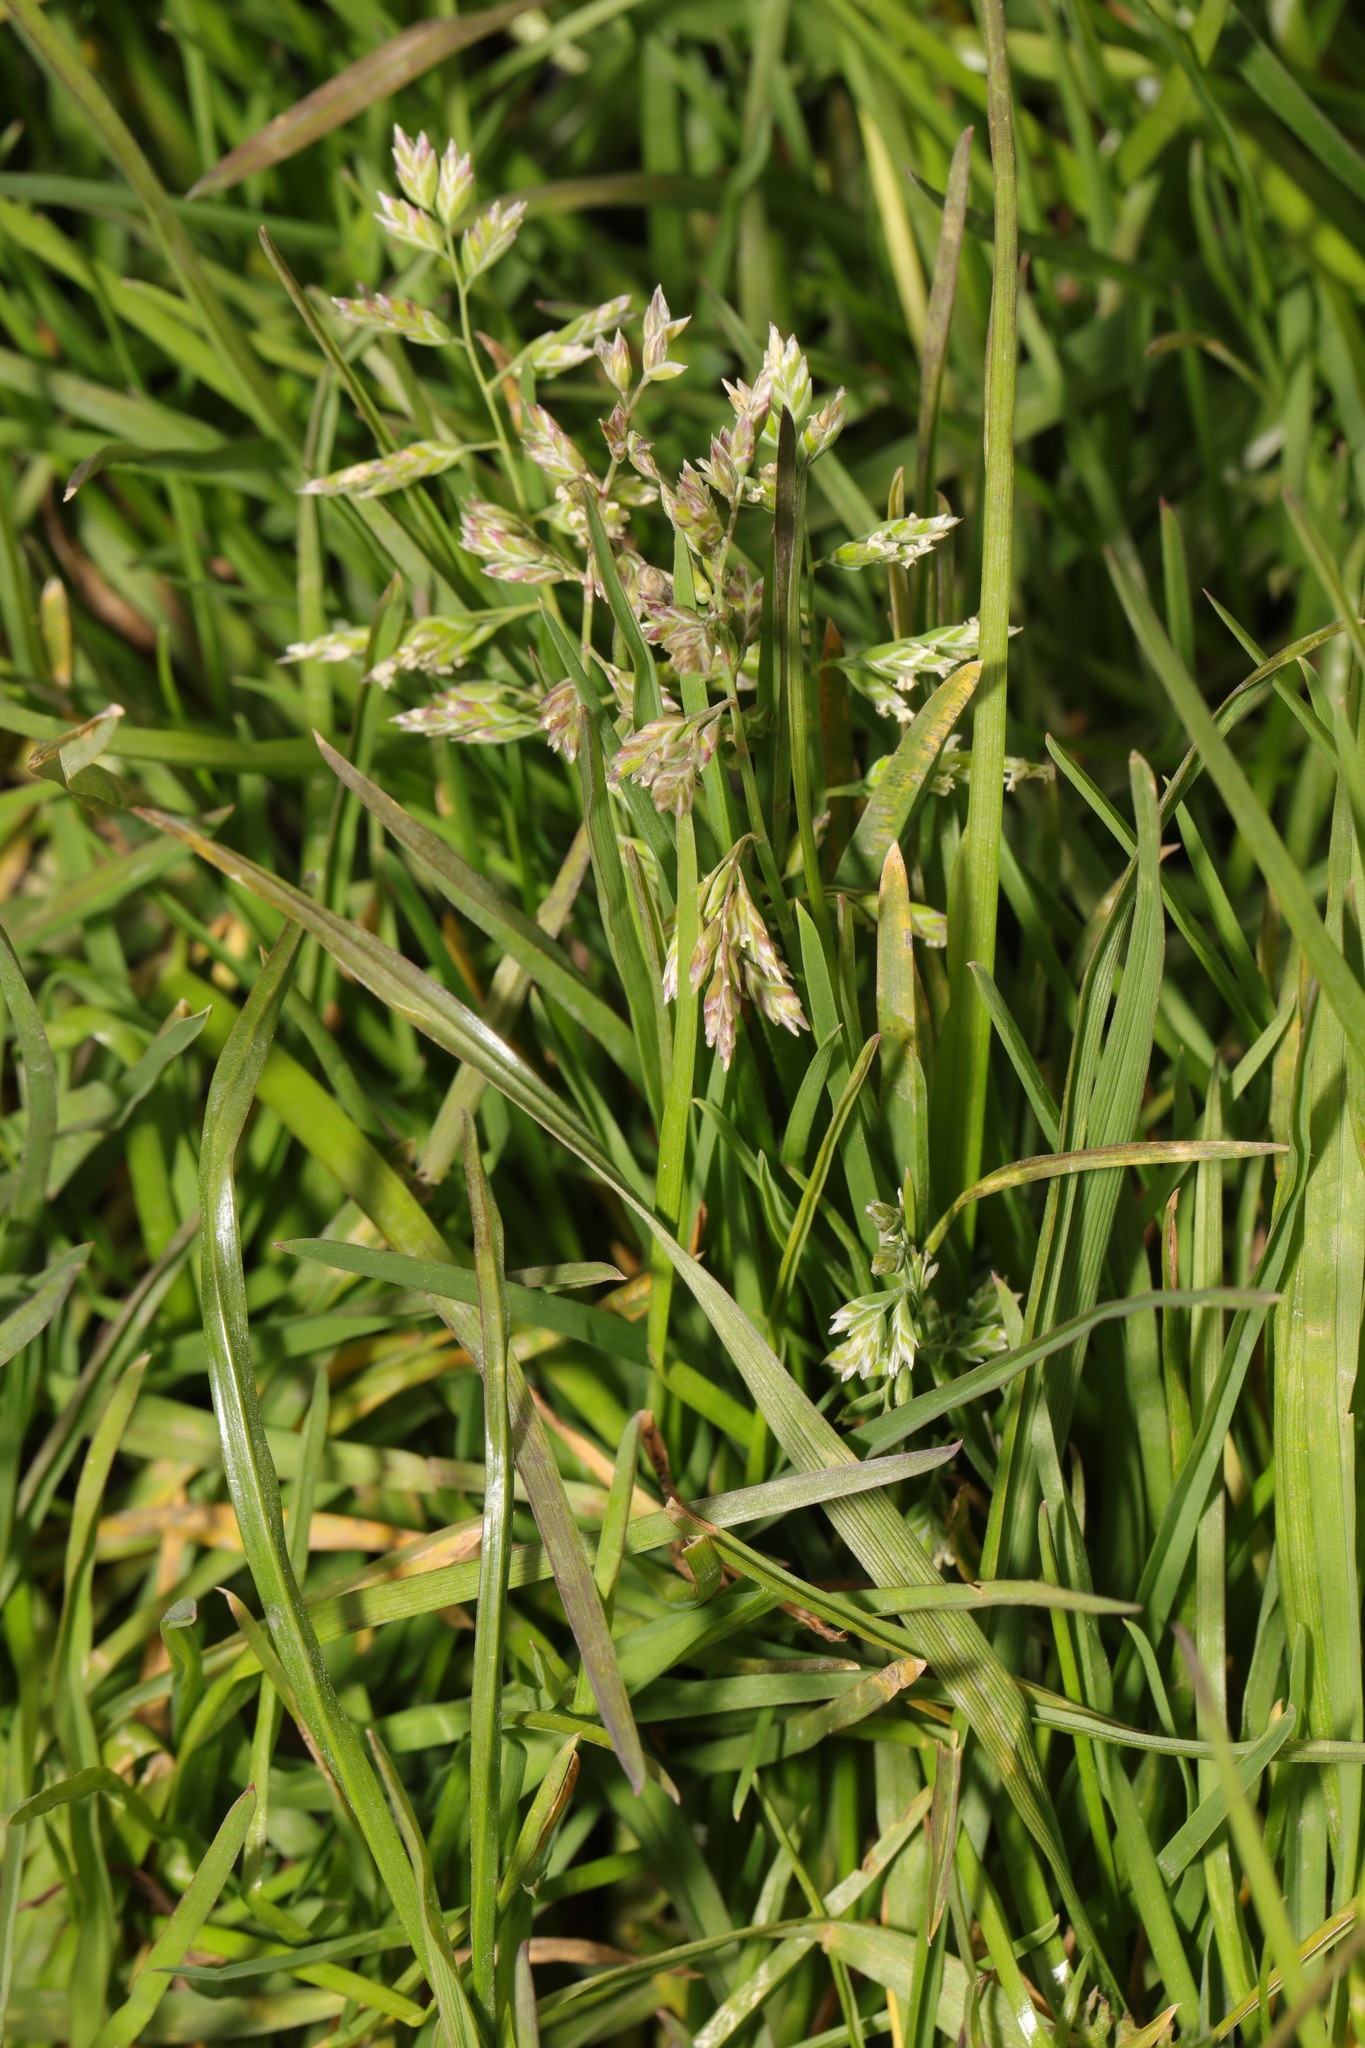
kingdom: Plantae
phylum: Tracheophyta
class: Liliopsida
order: Poales
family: Poaceae
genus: Poa
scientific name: Poa annua
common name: Annual bluegrass
